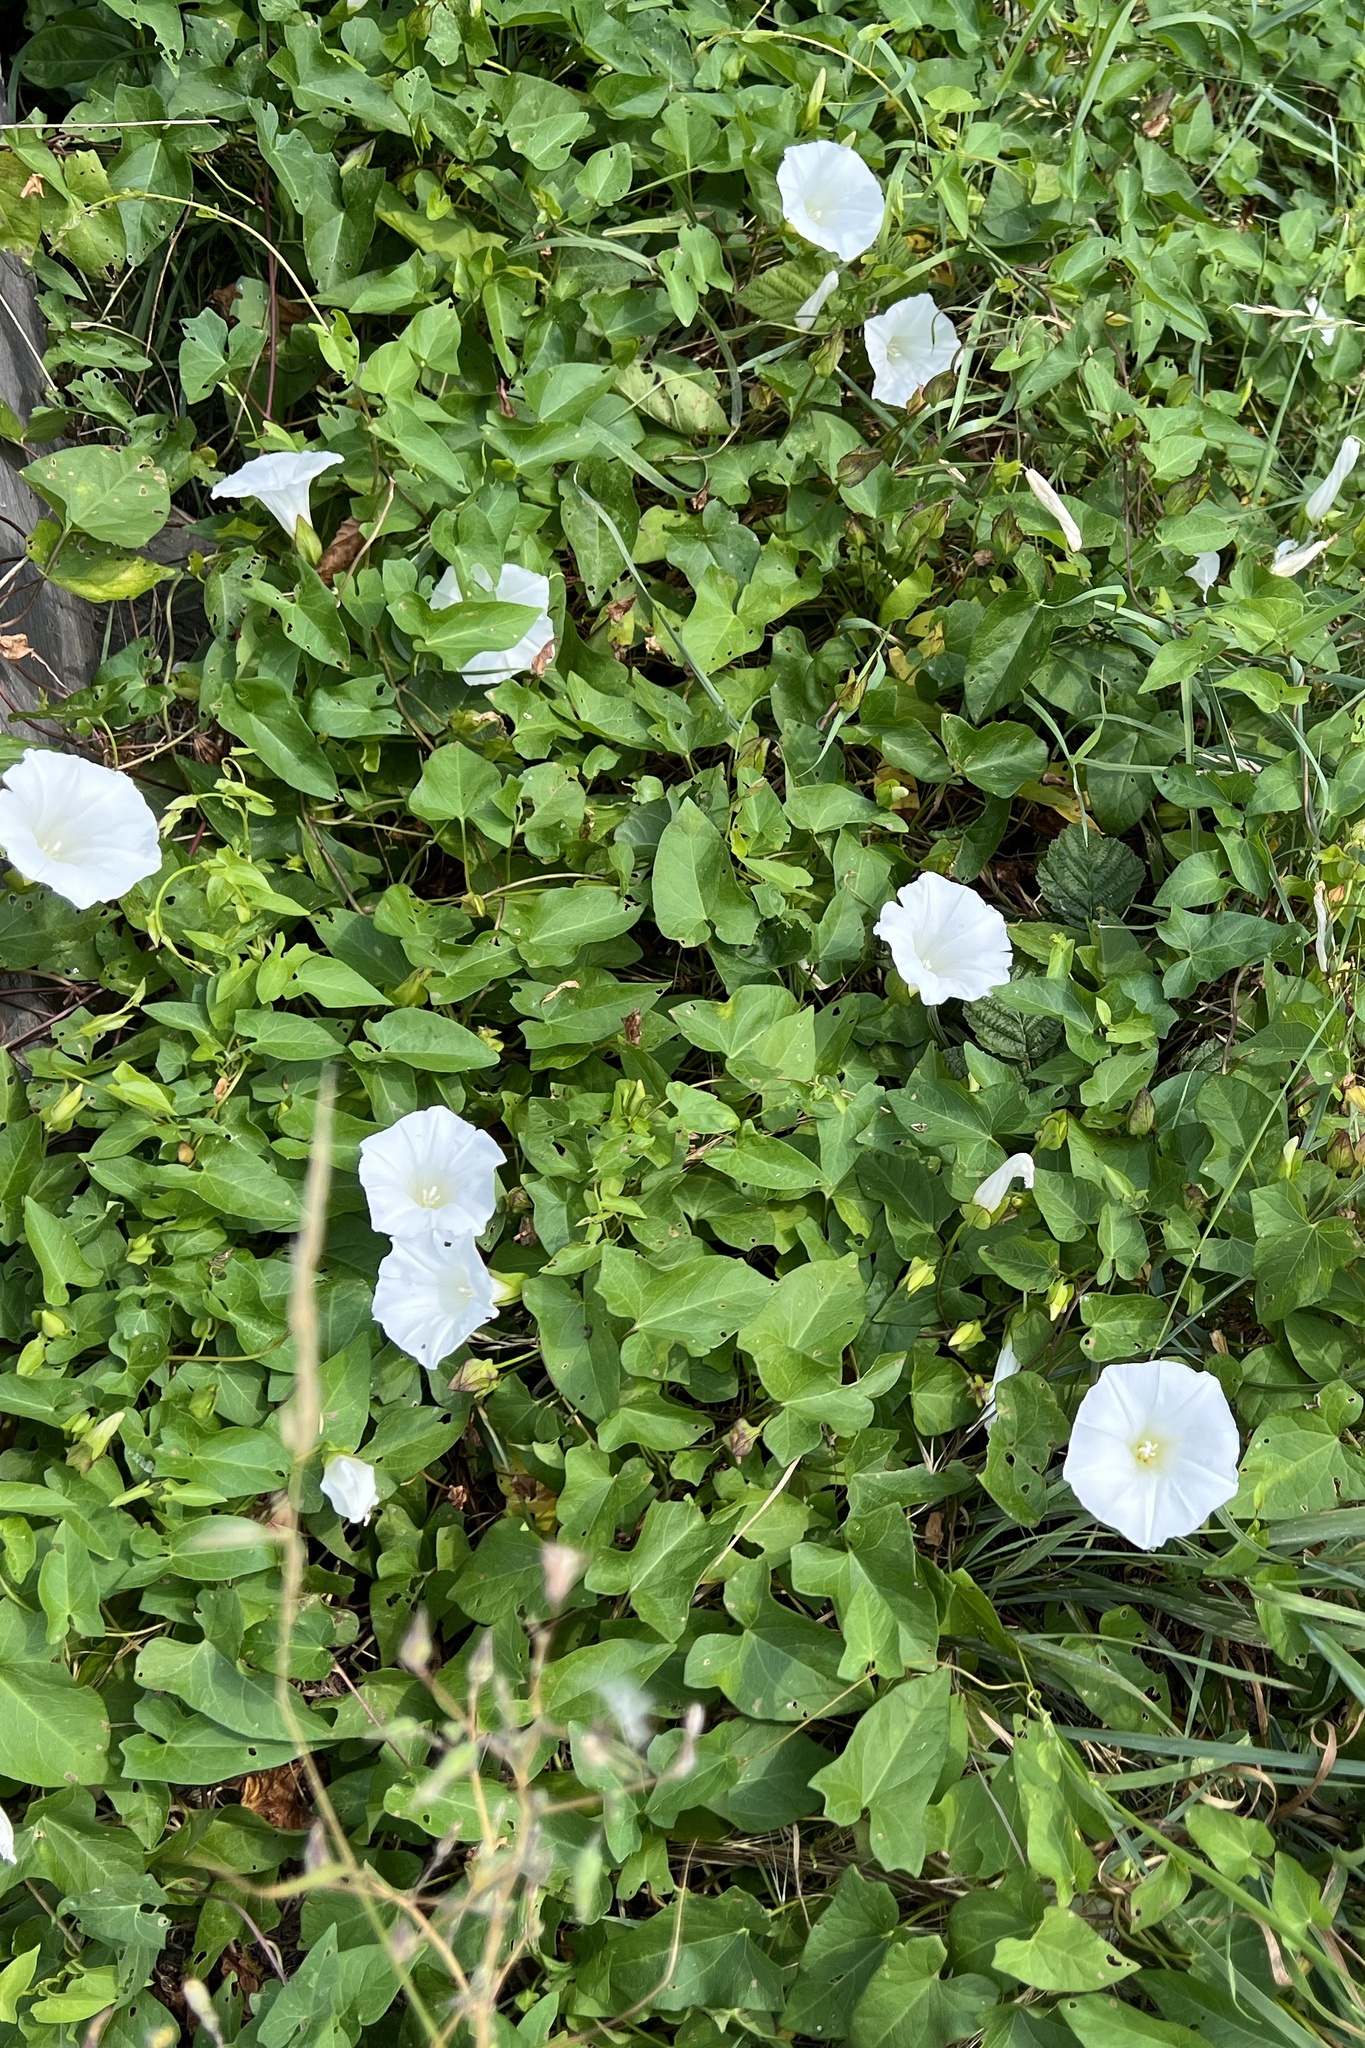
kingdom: Plantae
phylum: Tracheophyta
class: Magnoliopsida
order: Solanales
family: Convolvulaceae
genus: Calystegia
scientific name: Calystegia sepium
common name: Hedge bindweed
